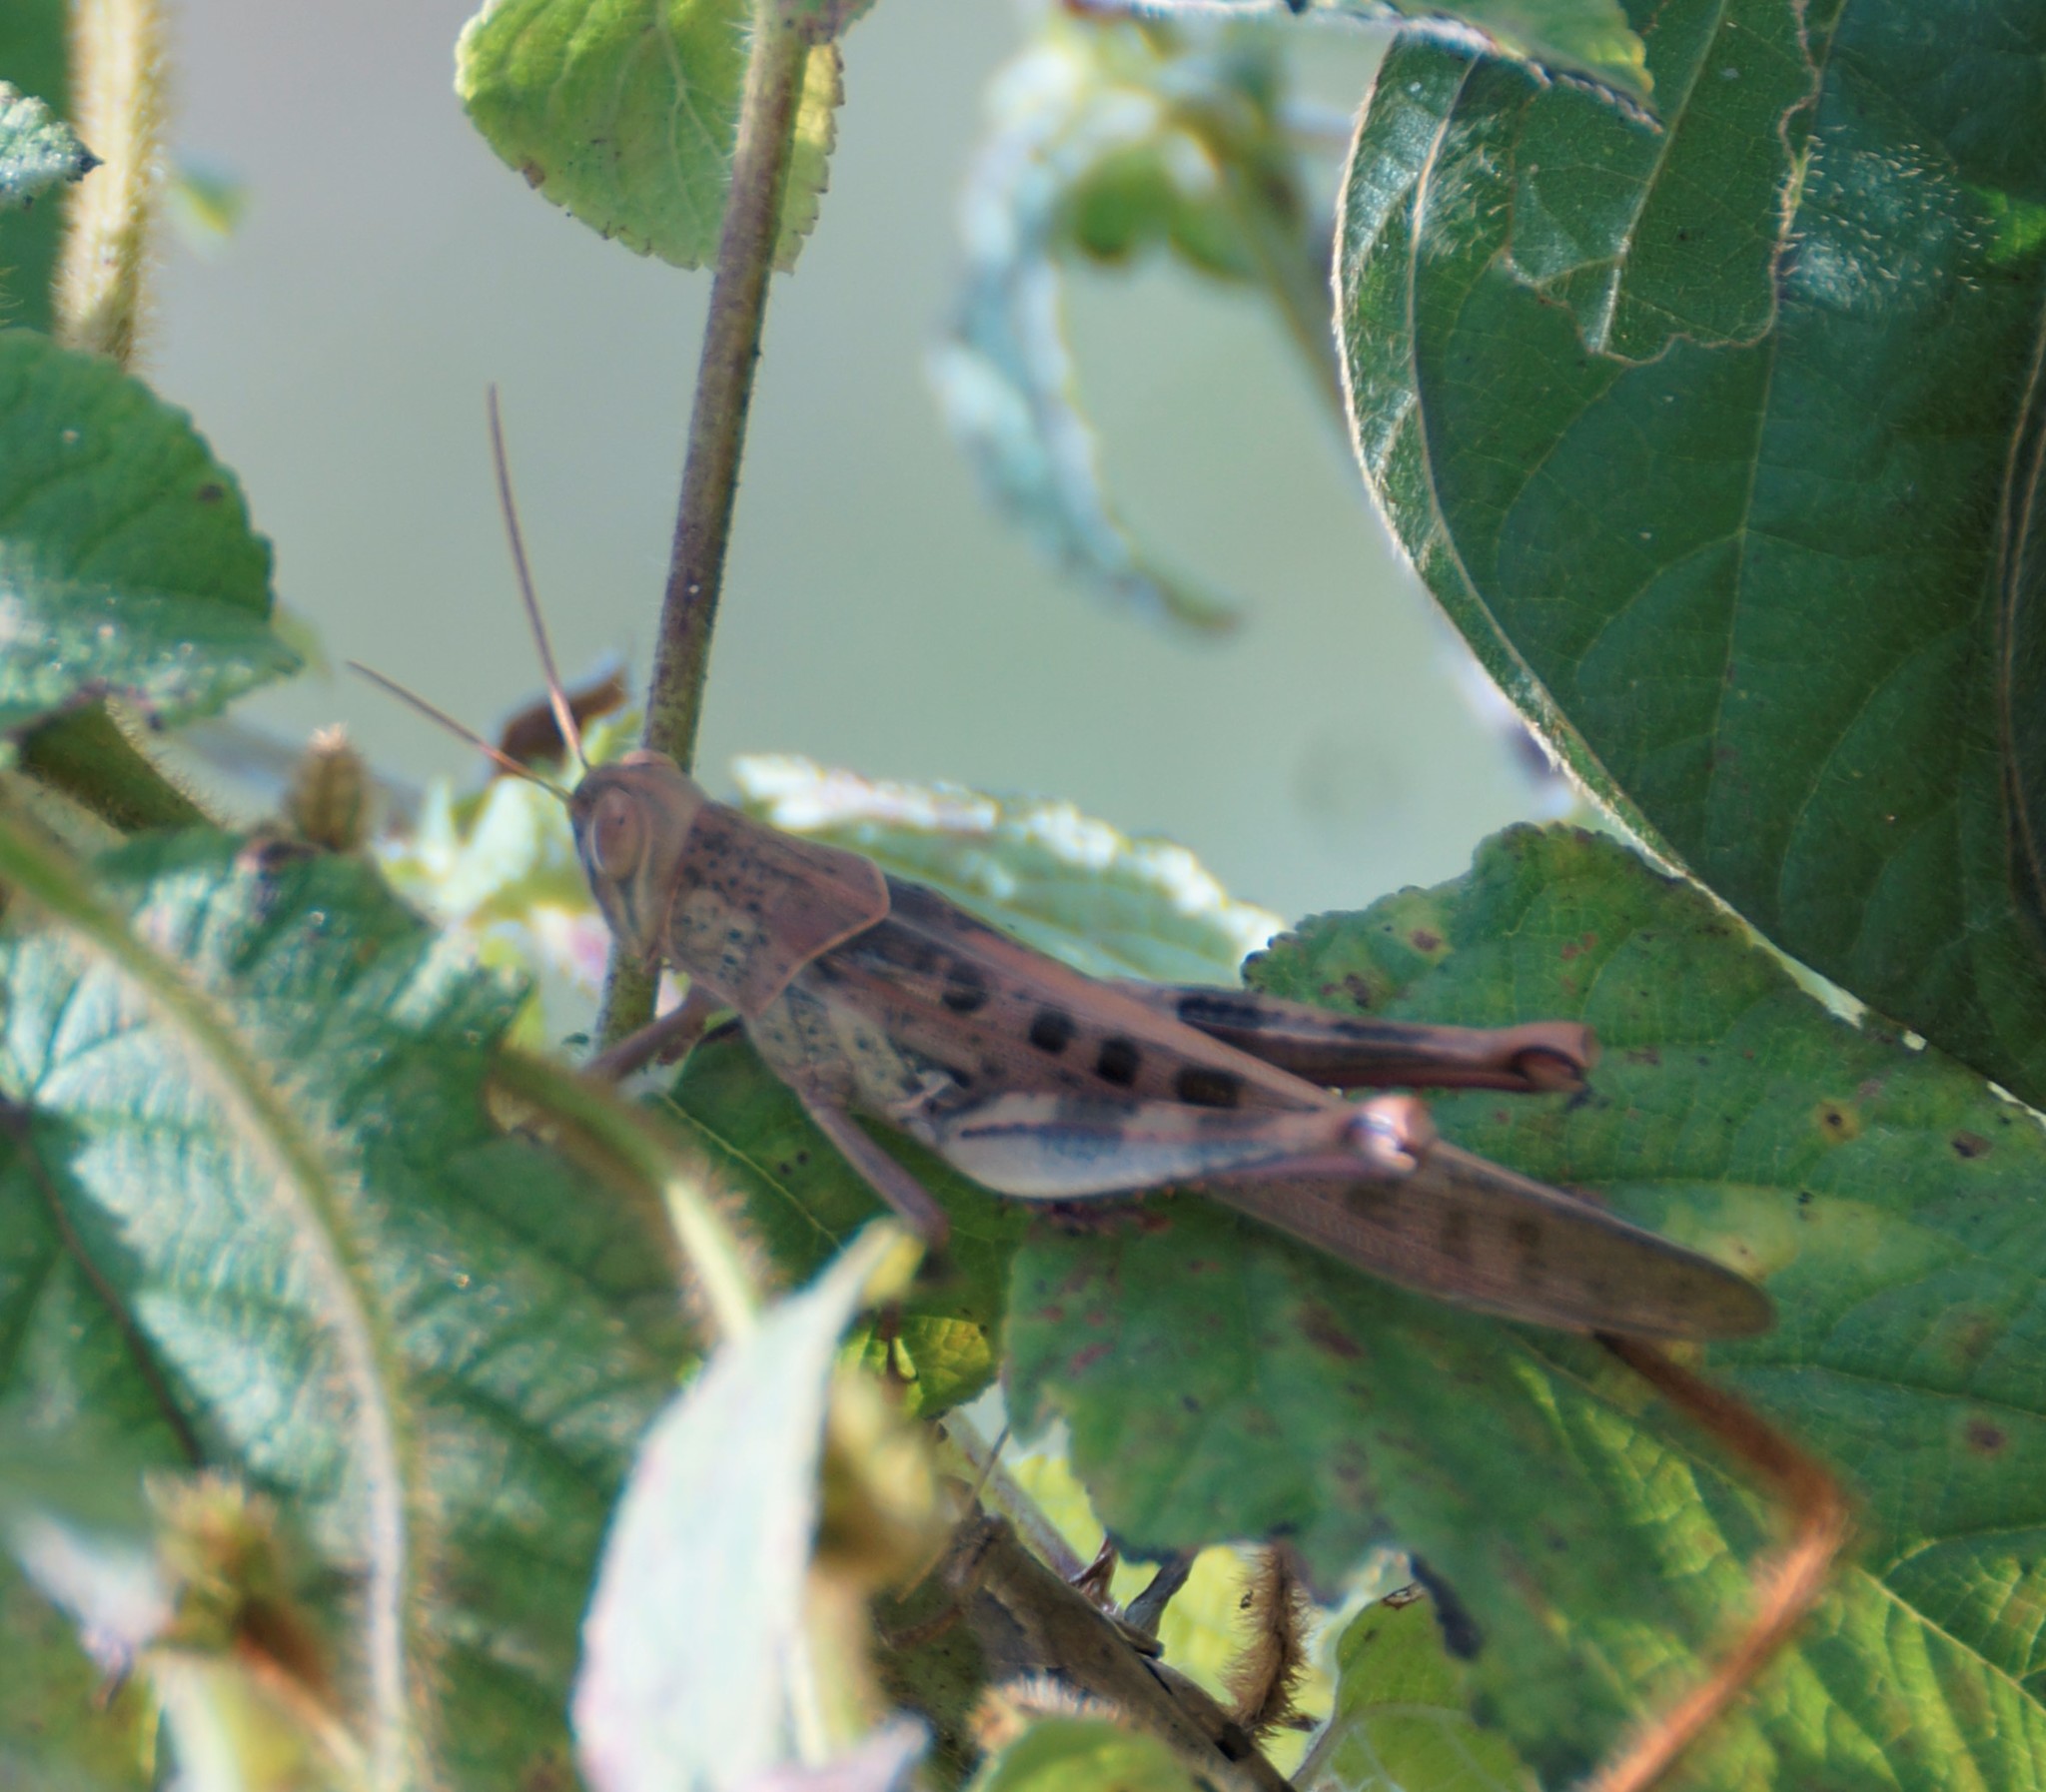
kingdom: Animalia
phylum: Arthropoda
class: Insecta
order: Orthoptera
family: Acrididae
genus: Valanga
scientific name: Valanga irregularis
